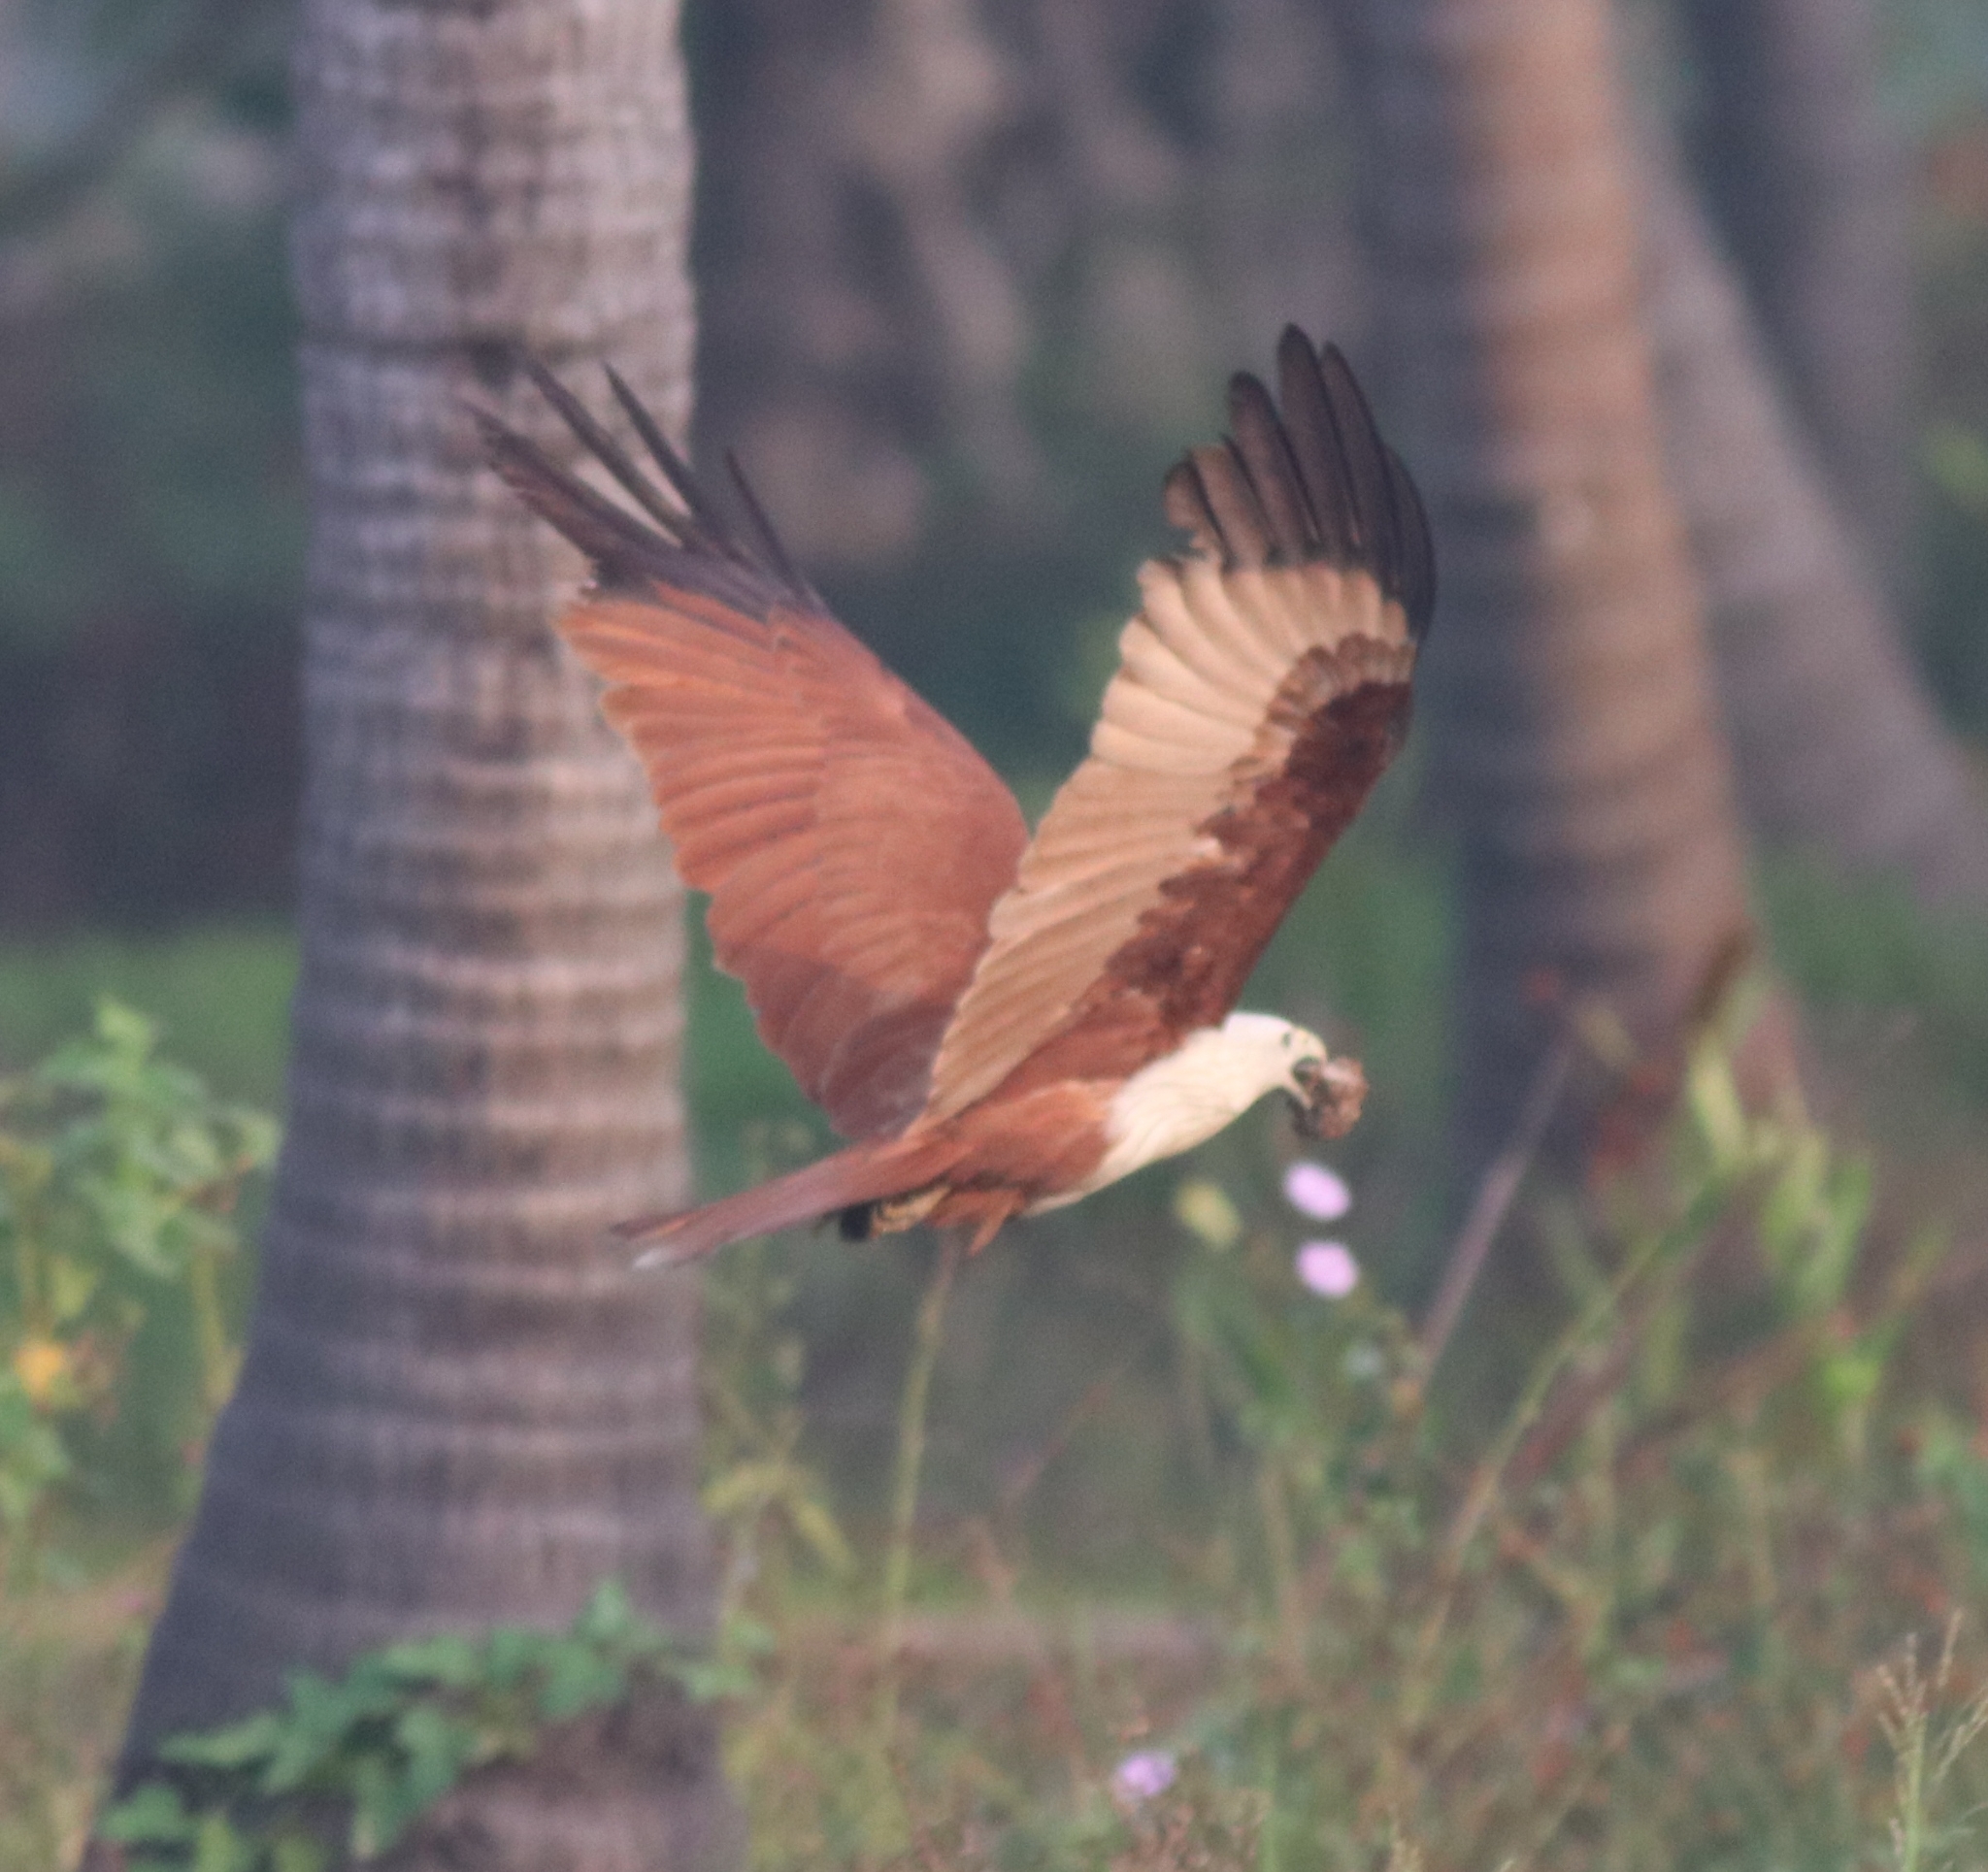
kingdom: Animalia
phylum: Chordata
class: Aves
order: Accipitriformes
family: Accipitridae
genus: Haliastur
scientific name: Haliastur indus
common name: Brahminy kite
